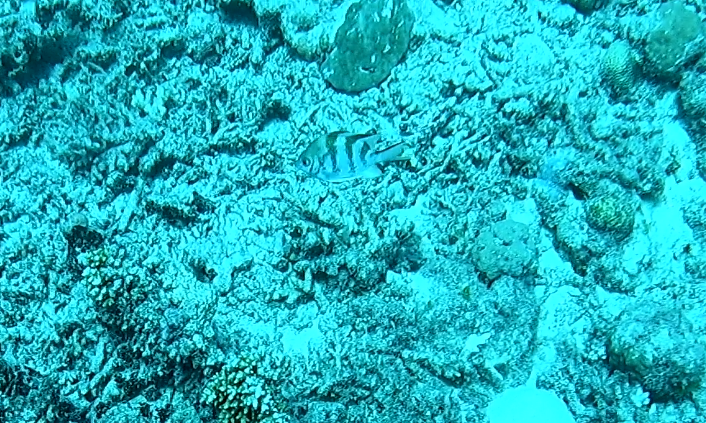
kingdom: Animalia
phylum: Chordata
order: Perciformes
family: Pomacentridae
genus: Amblyglyphidodon
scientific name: Amblyglyphidodon curacao
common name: Staghorn damsel
